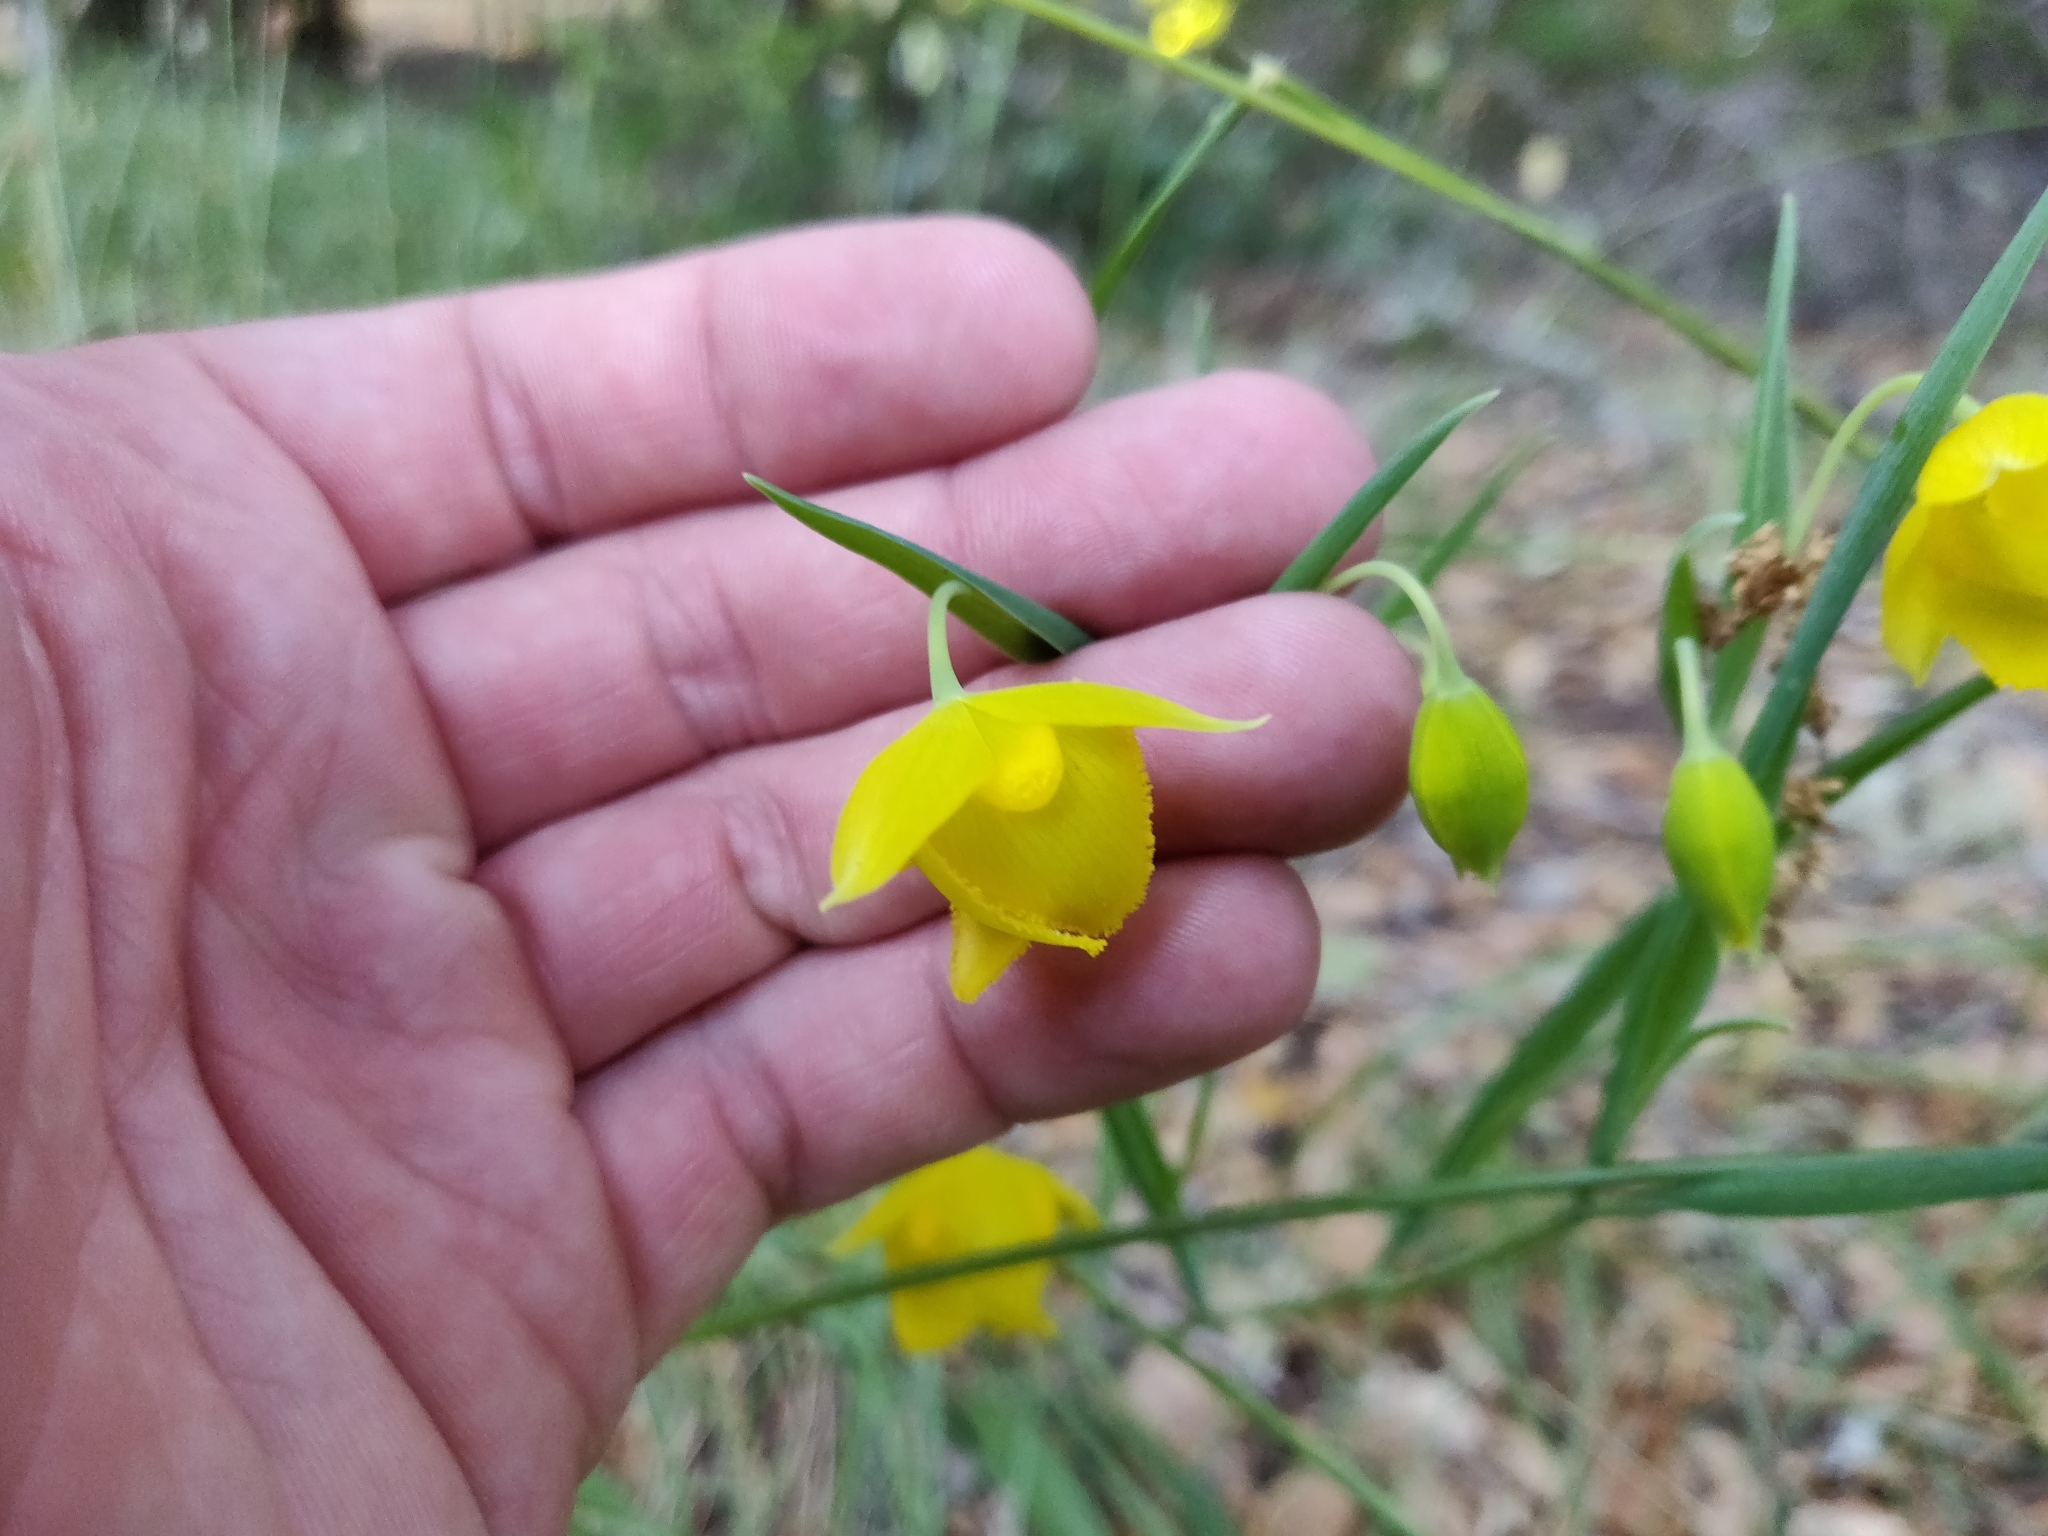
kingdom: Plantae
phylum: Tracheophyta
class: Liliopsida
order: Liliales
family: Liliaceae
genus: Calochortus
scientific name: Calochortus amabilis
